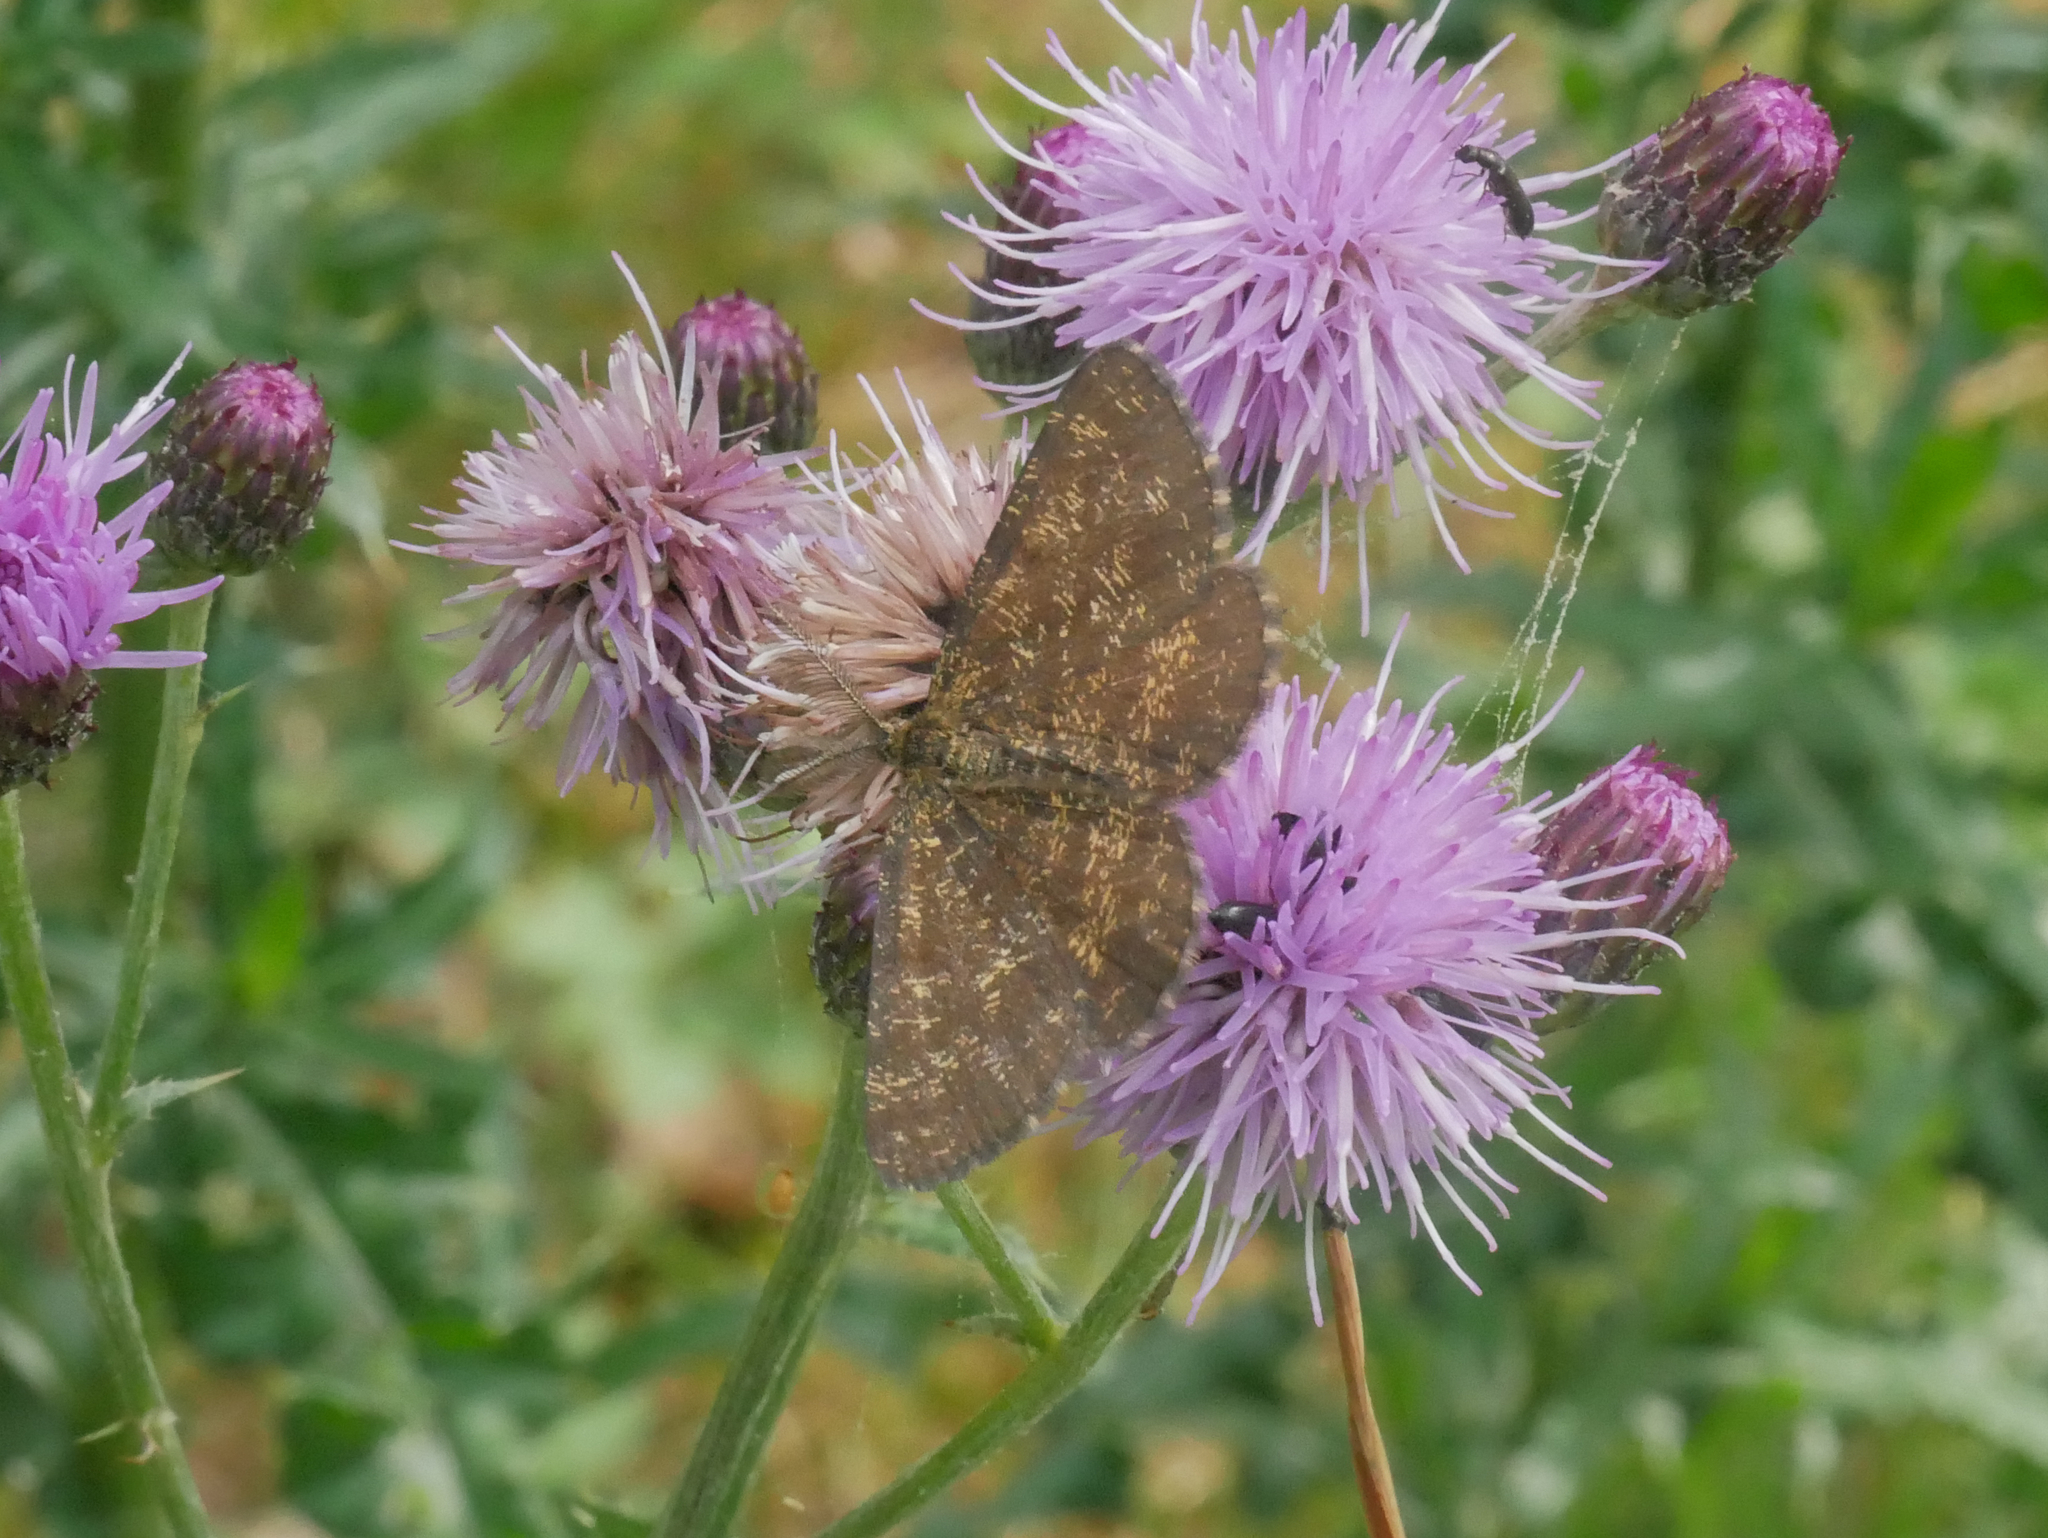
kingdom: Animalia
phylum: Arthropoda
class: Insecta
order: Lepidoptera
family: Geometridae
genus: Ematurga
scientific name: Ematurga atomaria
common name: Common heath
